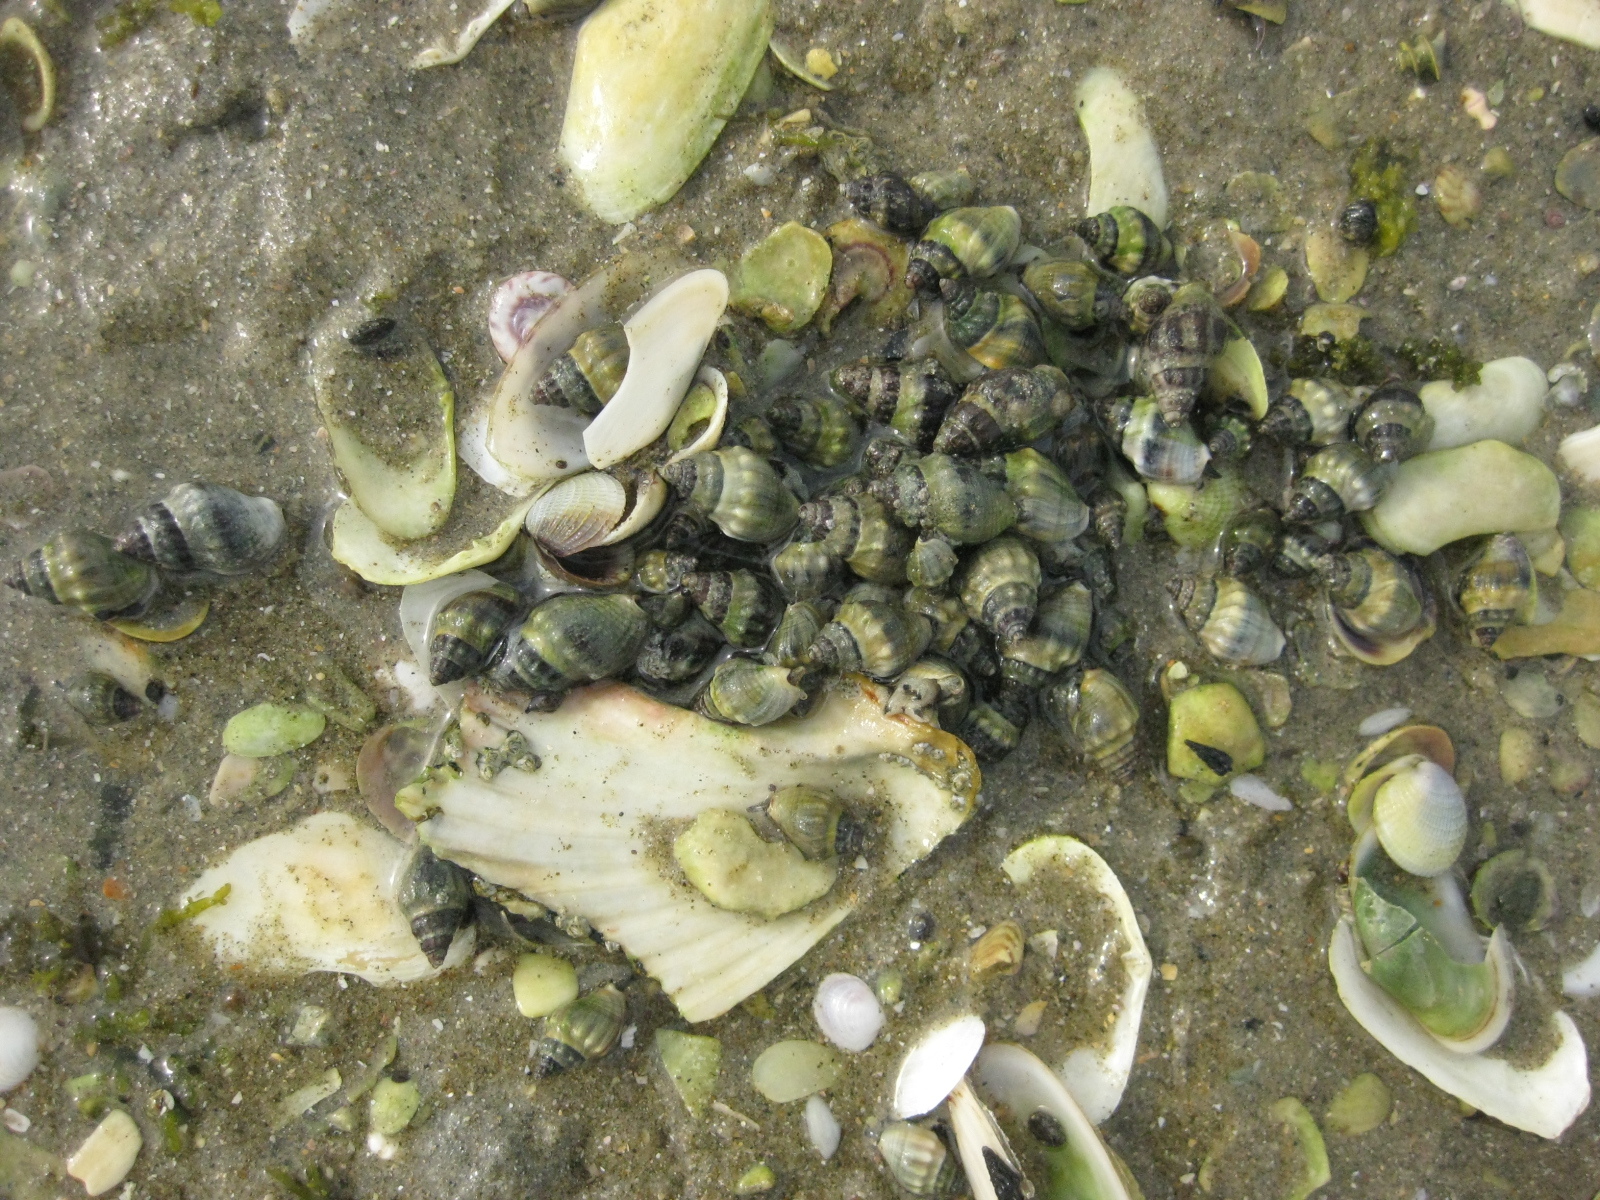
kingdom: Animalia
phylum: Mollusca
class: Gastropoda
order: Neogastropoda
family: Cominellidae
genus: Cominella
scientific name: Cominella glandiformis
